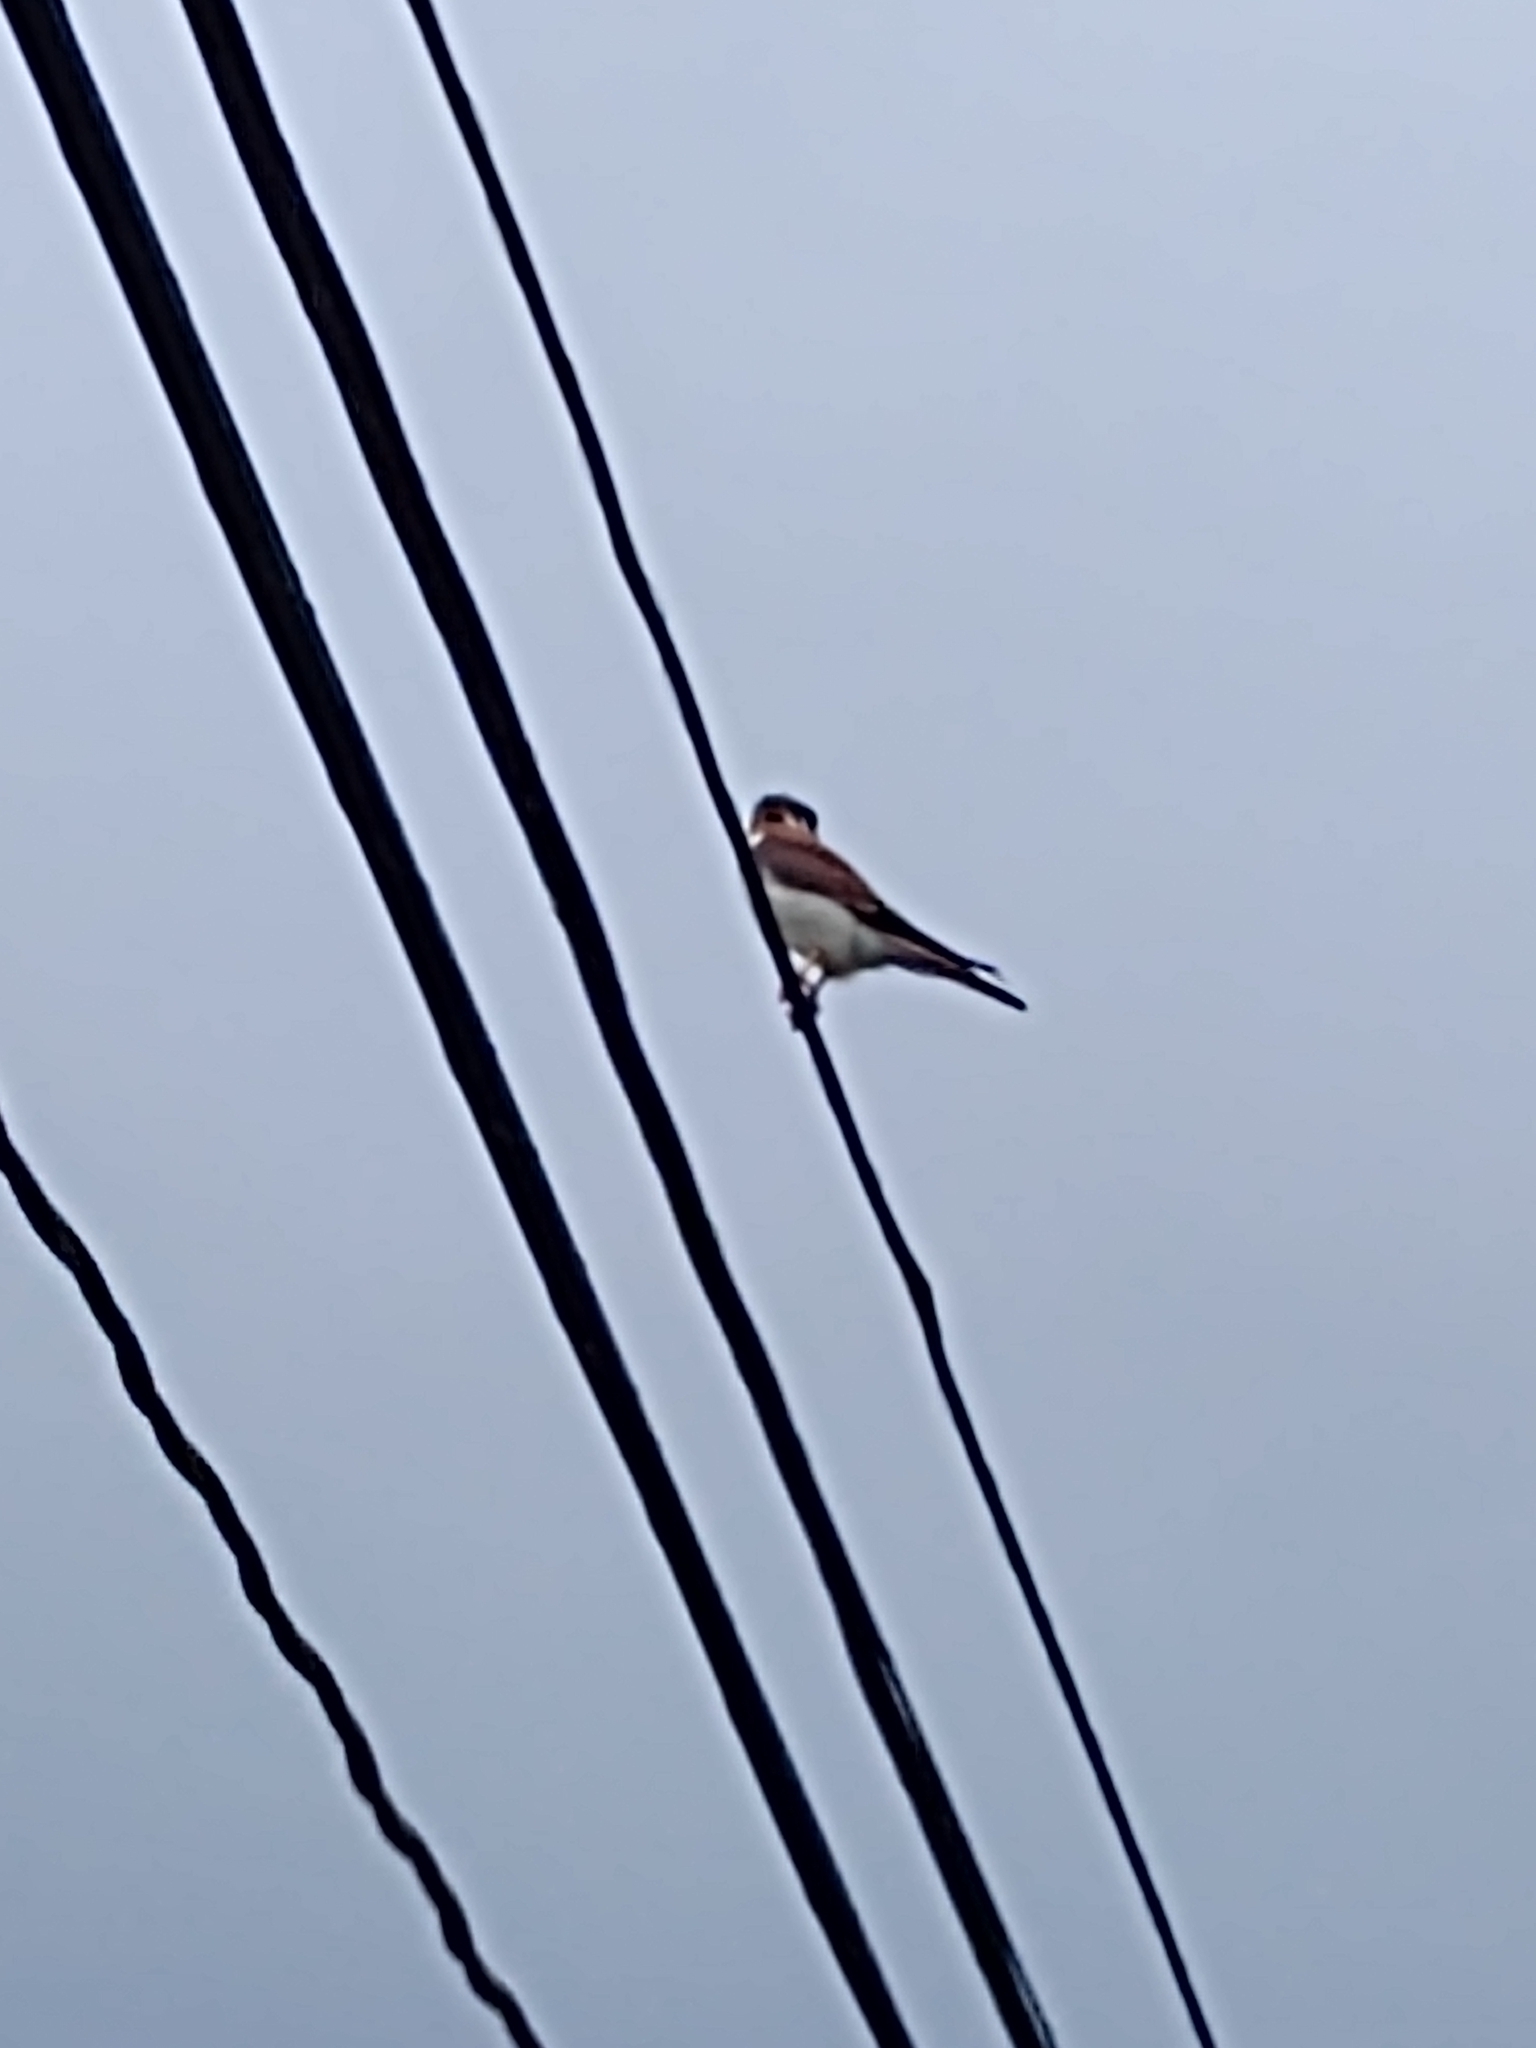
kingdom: Animalia
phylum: Chordata
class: Aves
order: Falconiformes
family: Falconidae
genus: Falco
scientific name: Falco sparverius
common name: American kestrel
